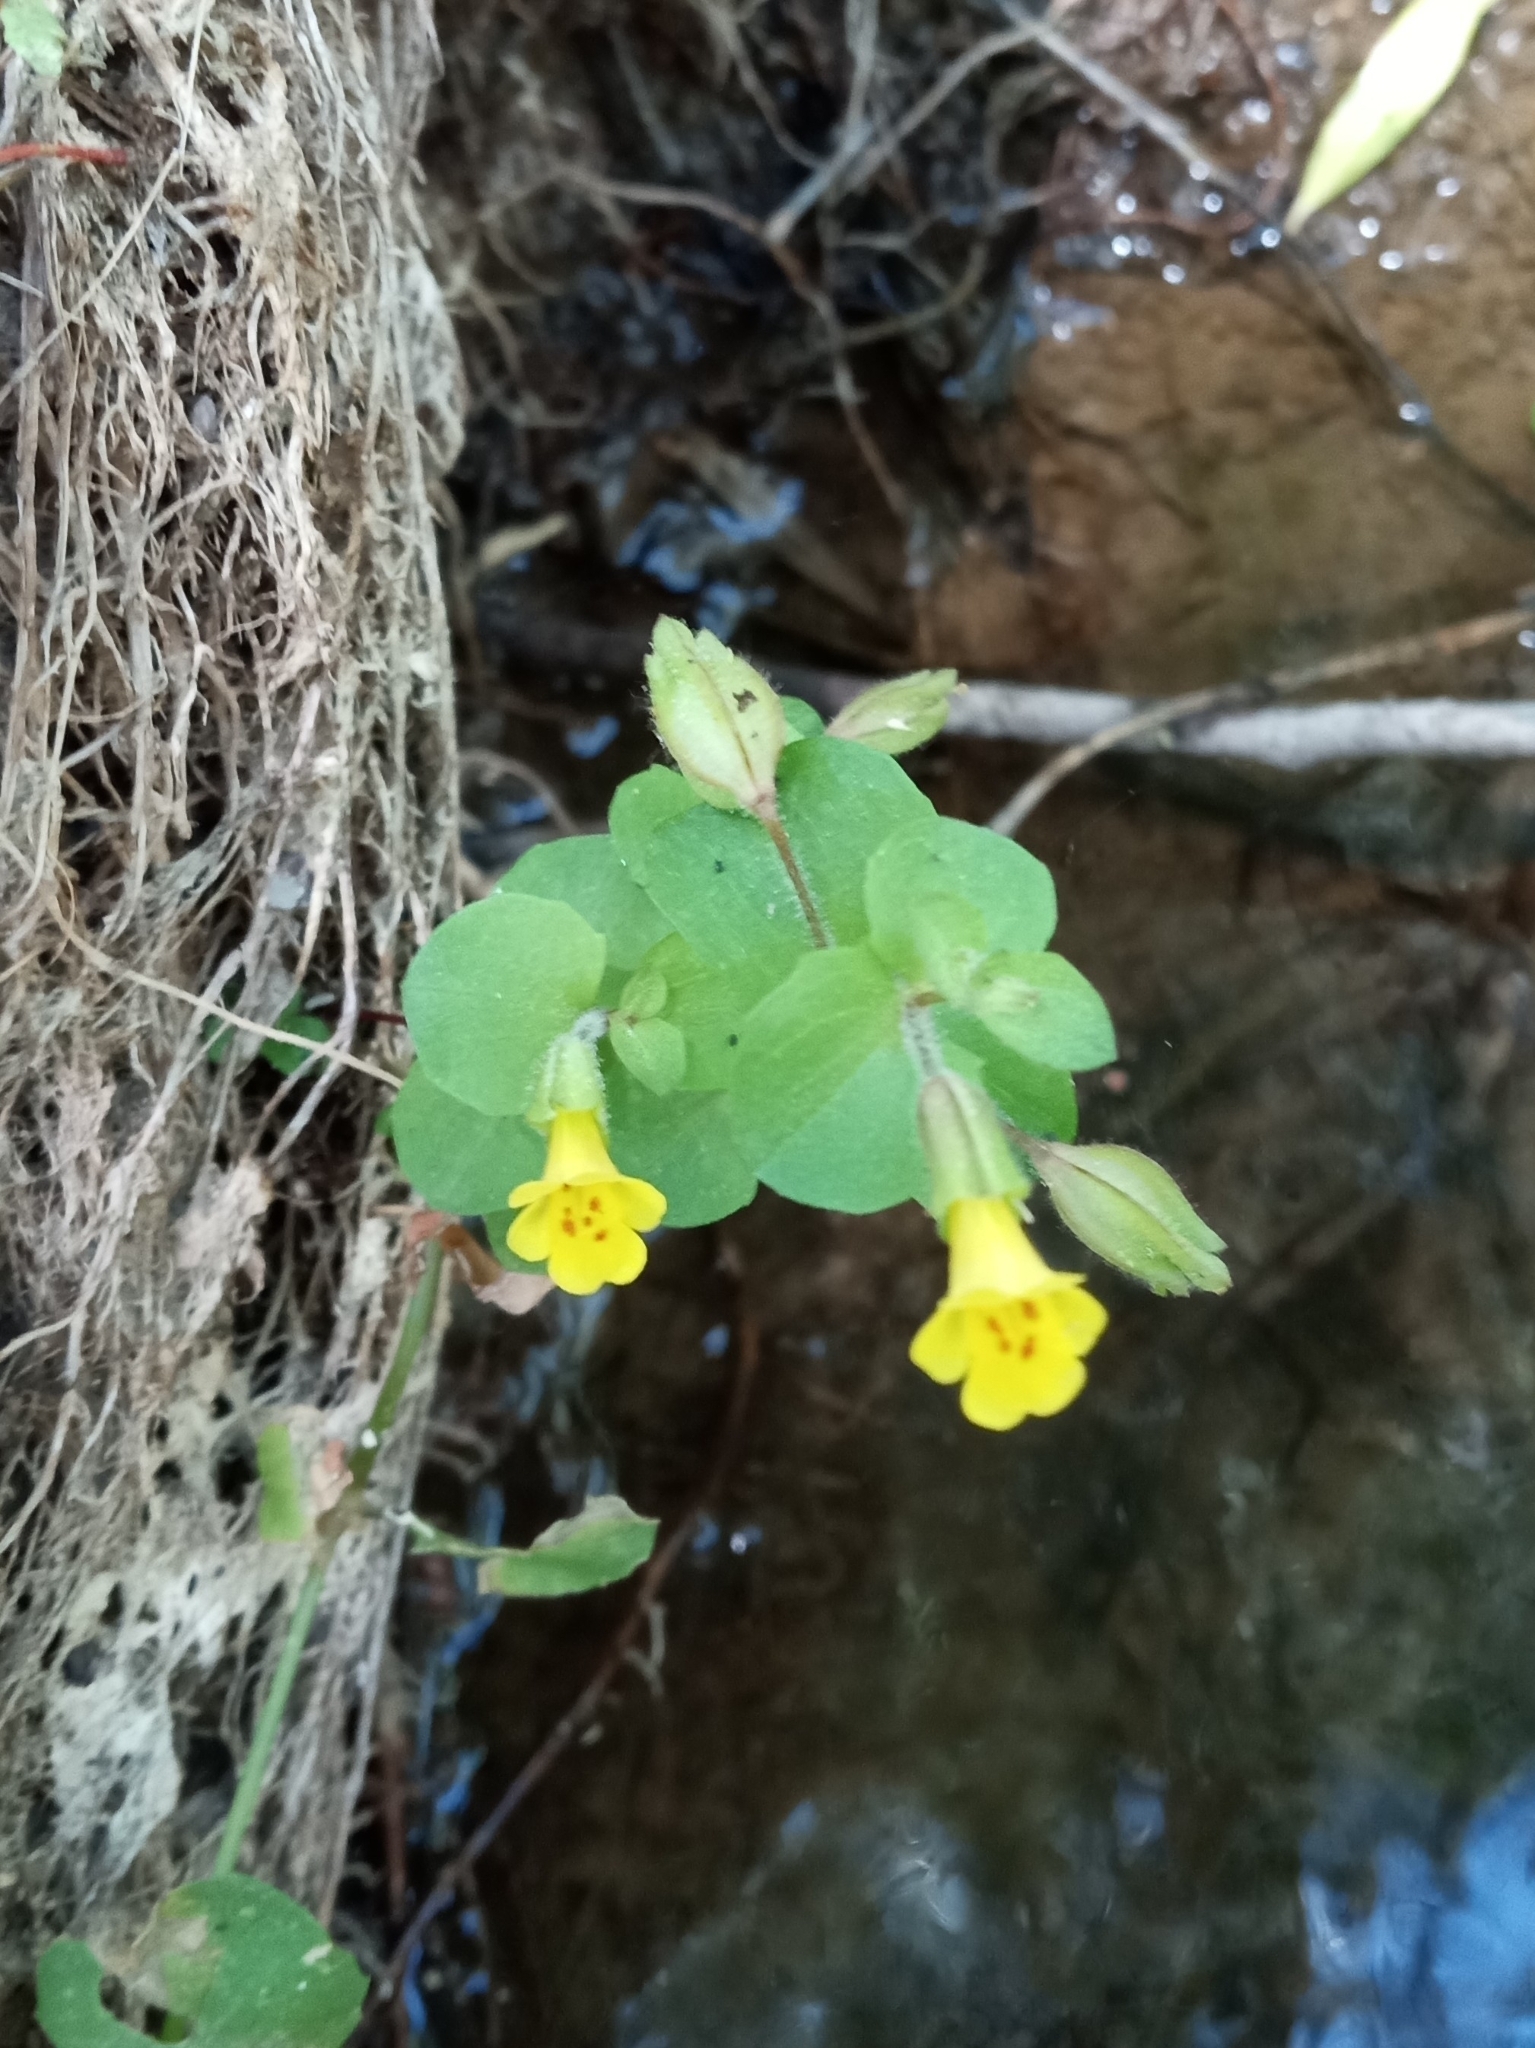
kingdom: Plantae
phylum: Tracheophyta
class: Magnoliopsida
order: Lamiales
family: Phrymaceae
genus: Erythranthe
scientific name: Erythranthe guttata
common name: Monkeyflower
